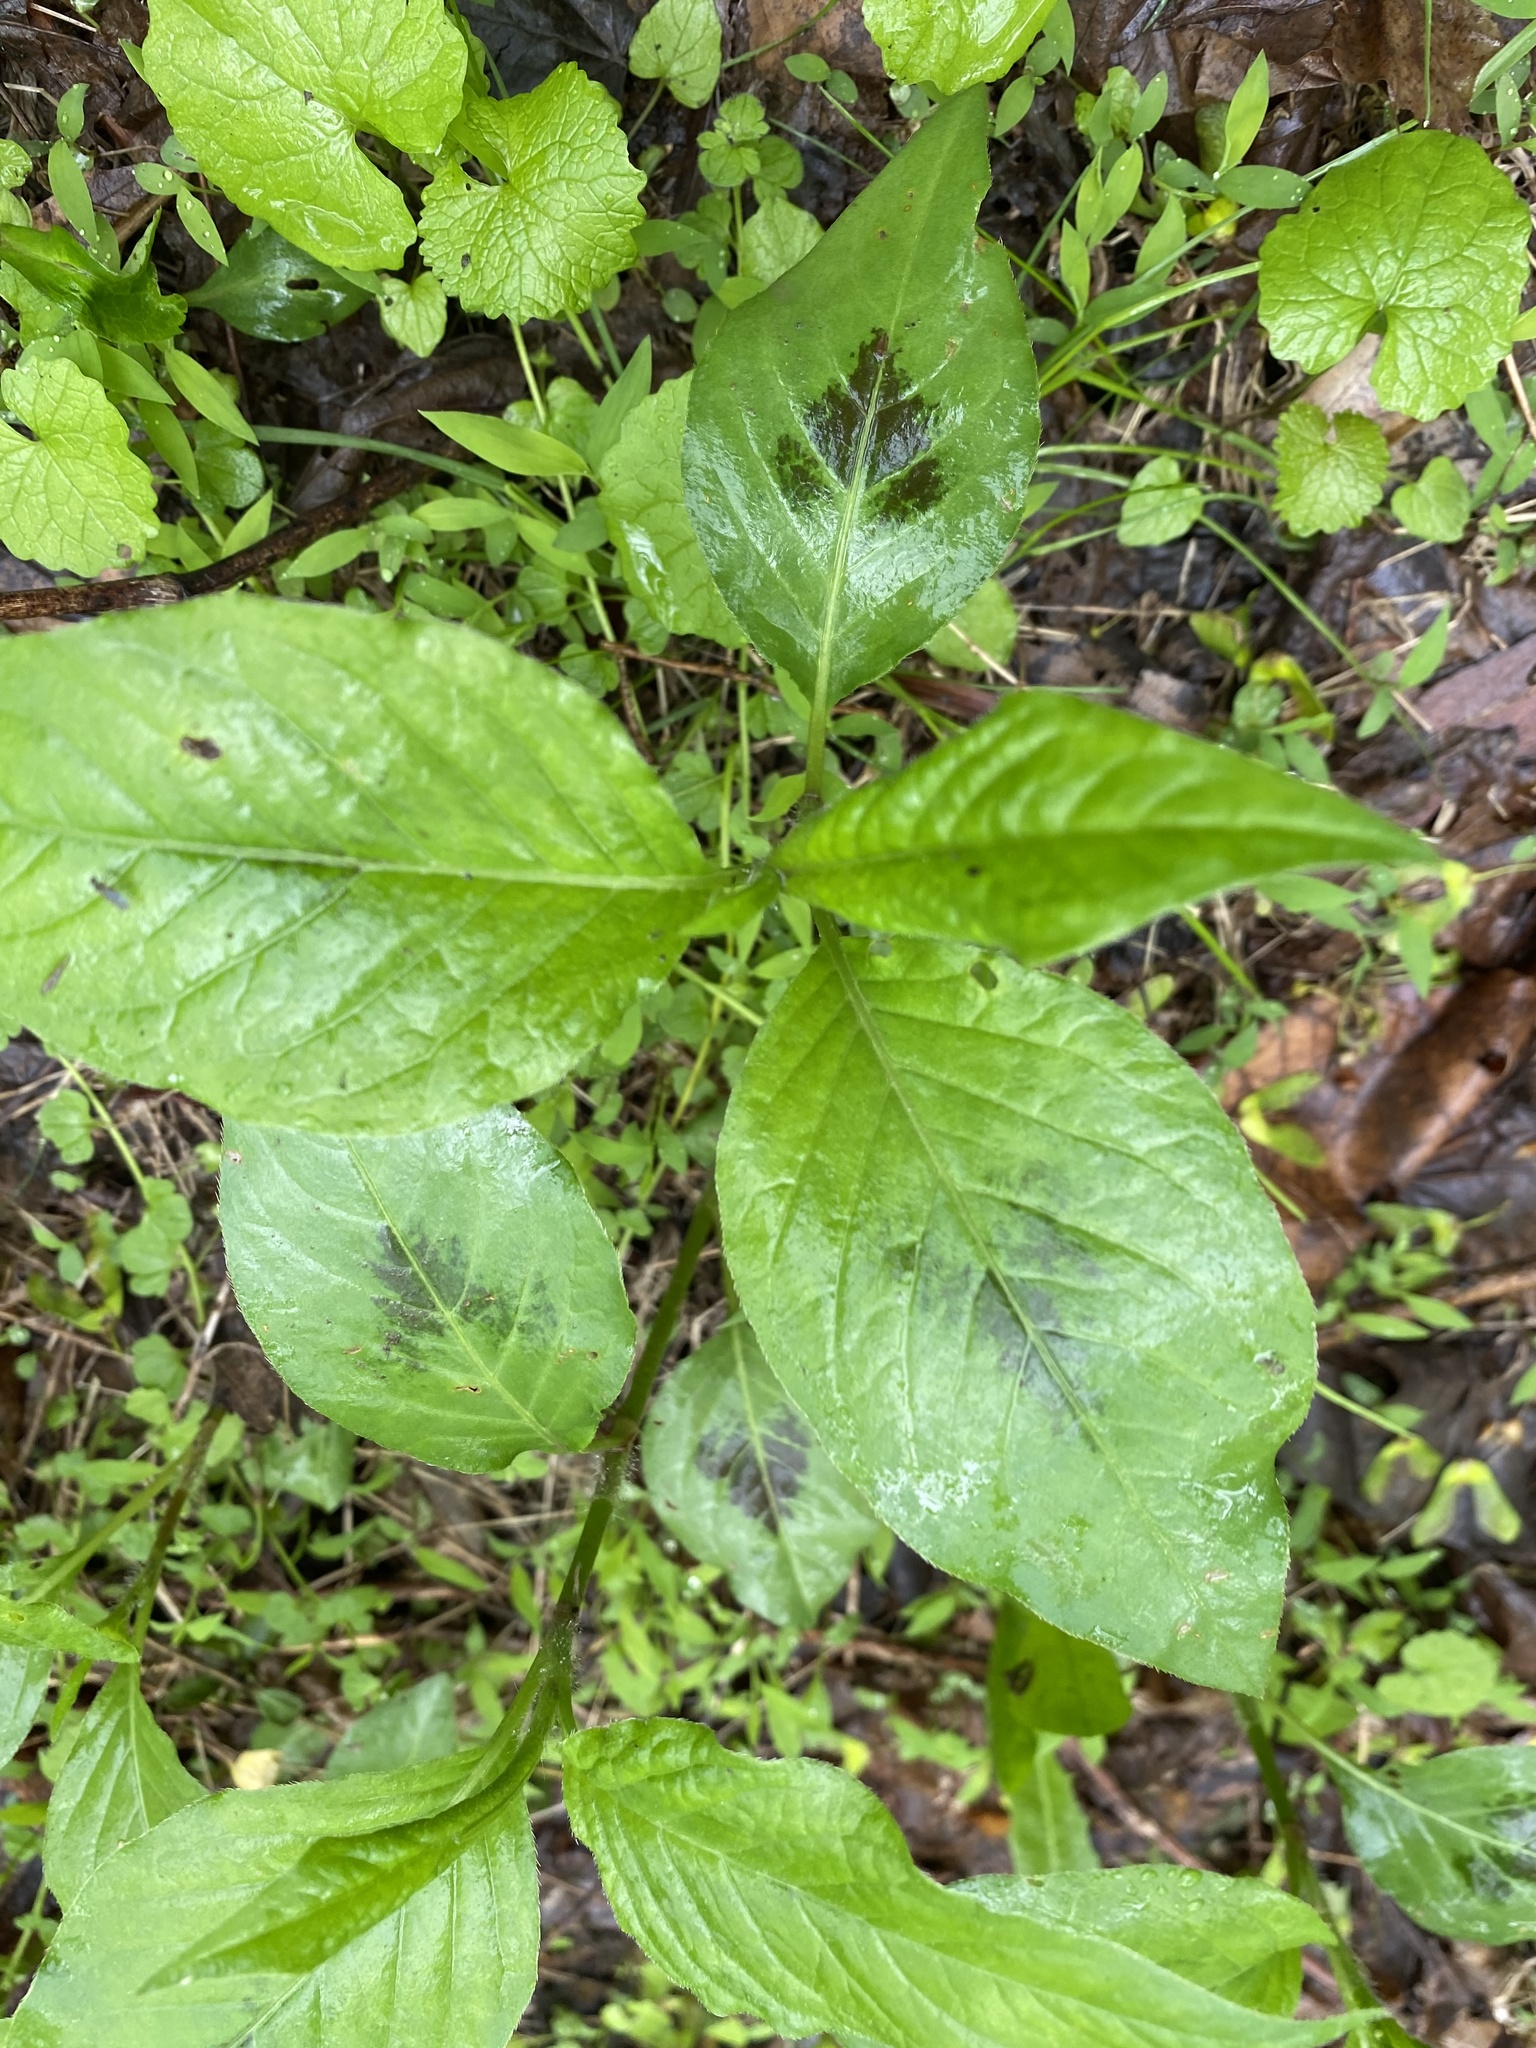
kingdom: Plantae
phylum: Tracheophyta
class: Magnoliopsida
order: Caryophyllales
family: Polygonaceae
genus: Persicaria
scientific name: Persicaria virginiana
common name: Jumpseed
